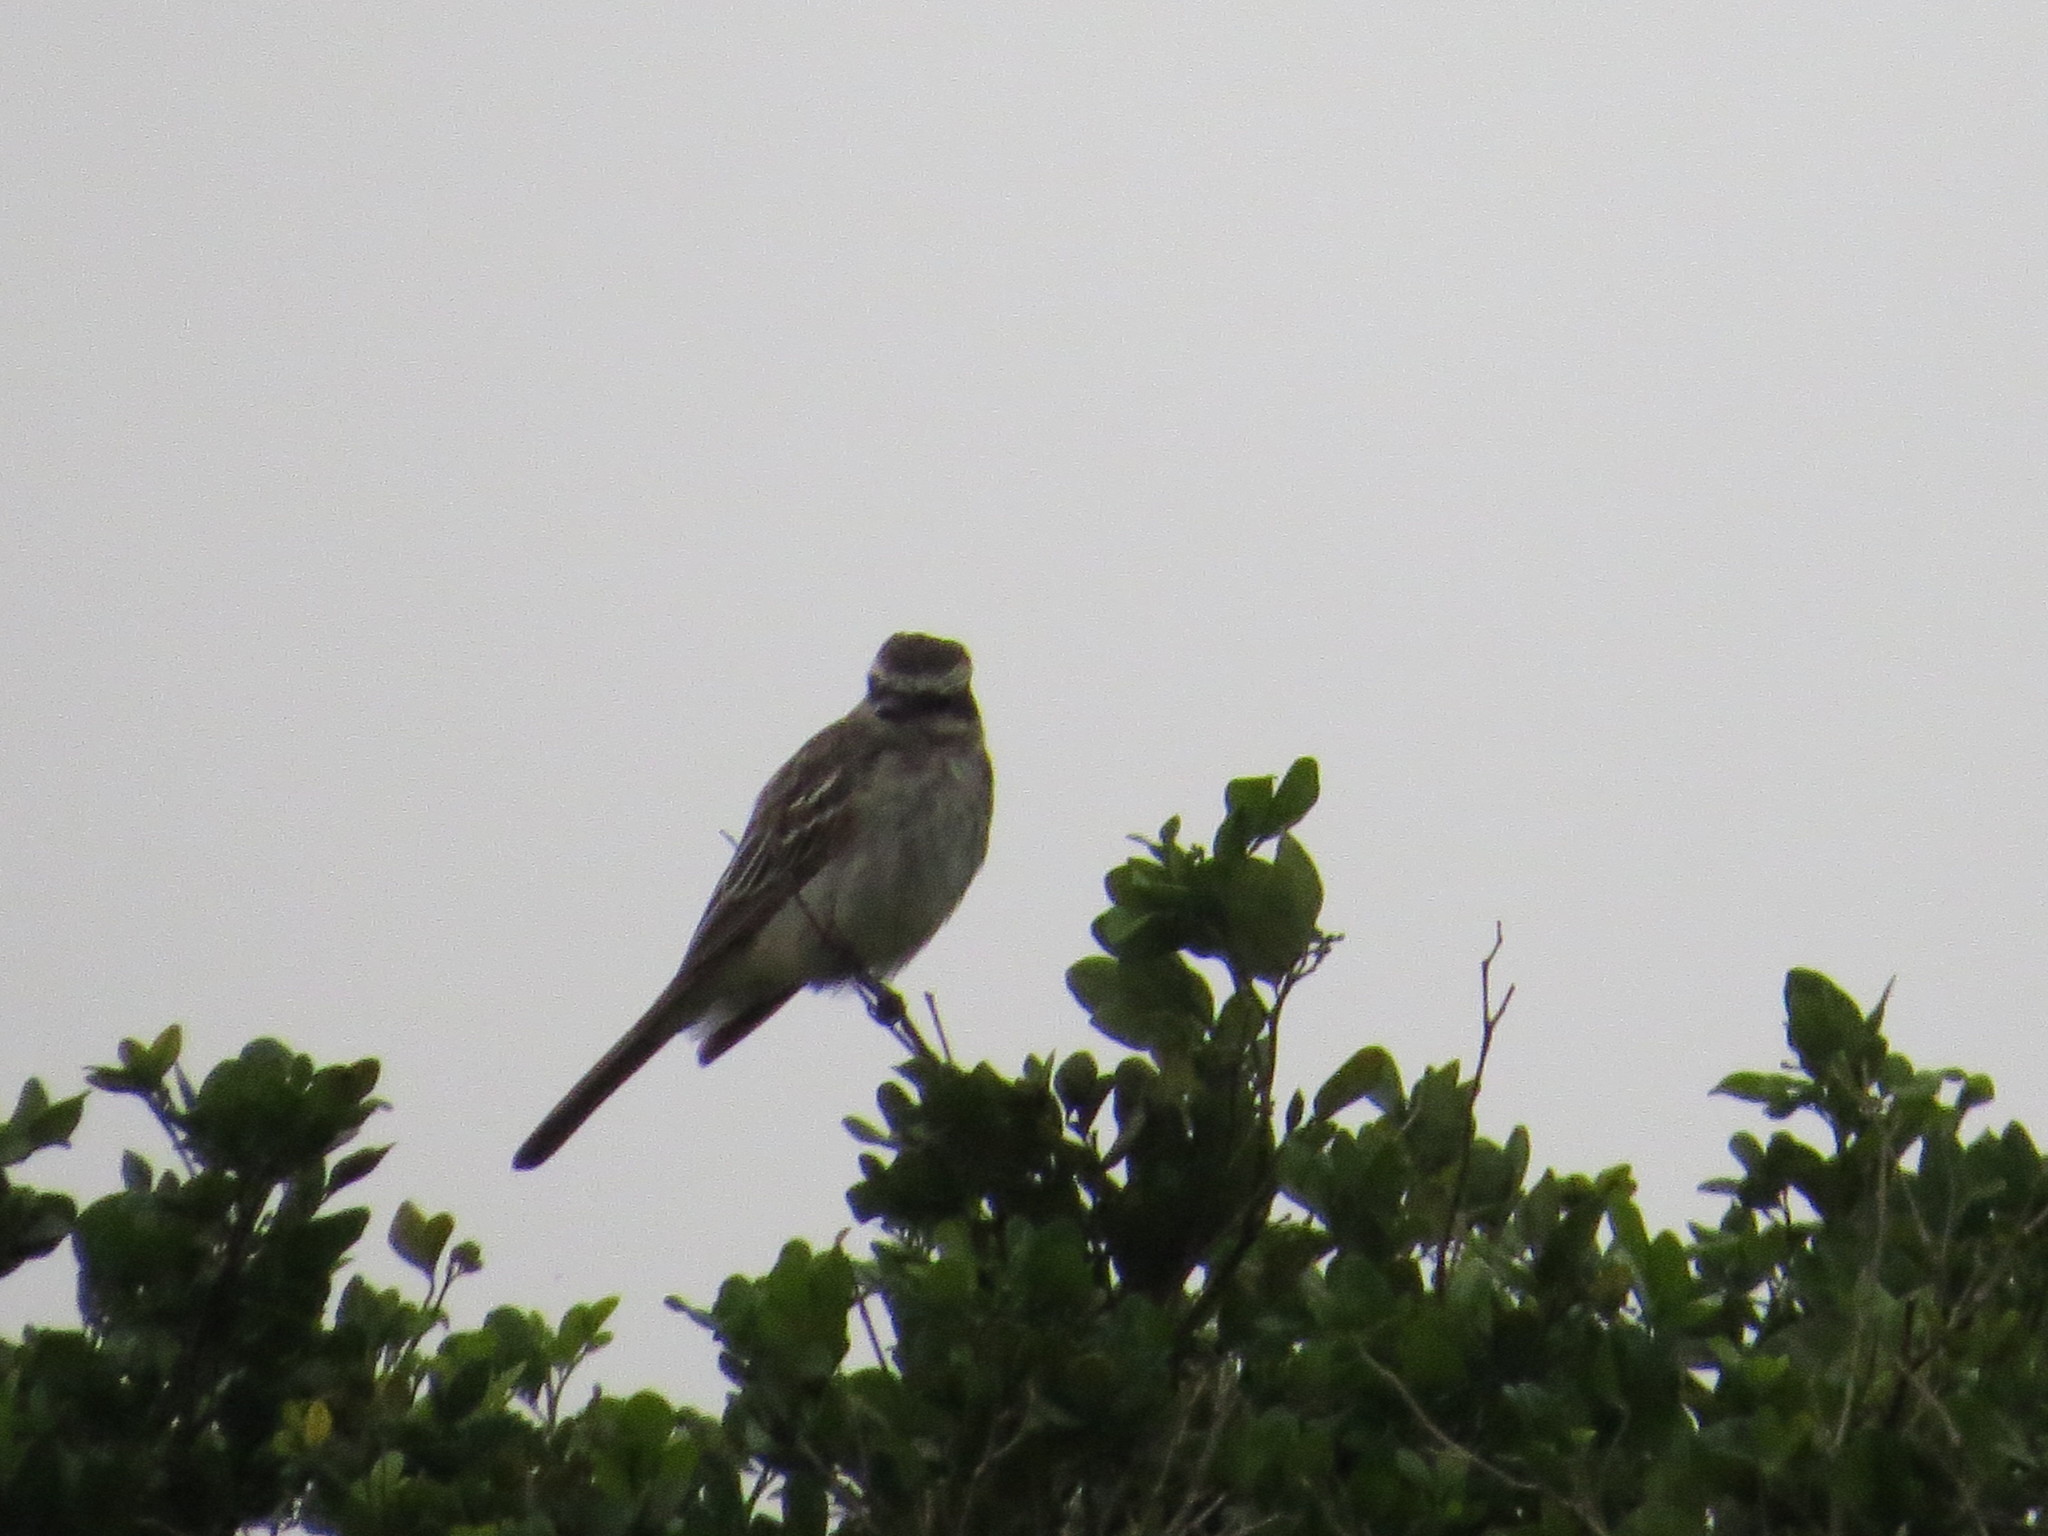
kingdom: Animalia
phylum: Chordata
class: Aves
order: Passeriformes
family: Tyrannidae
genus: Empidonomus
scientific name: Empidonomus varius
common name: Variegated flycatcher
